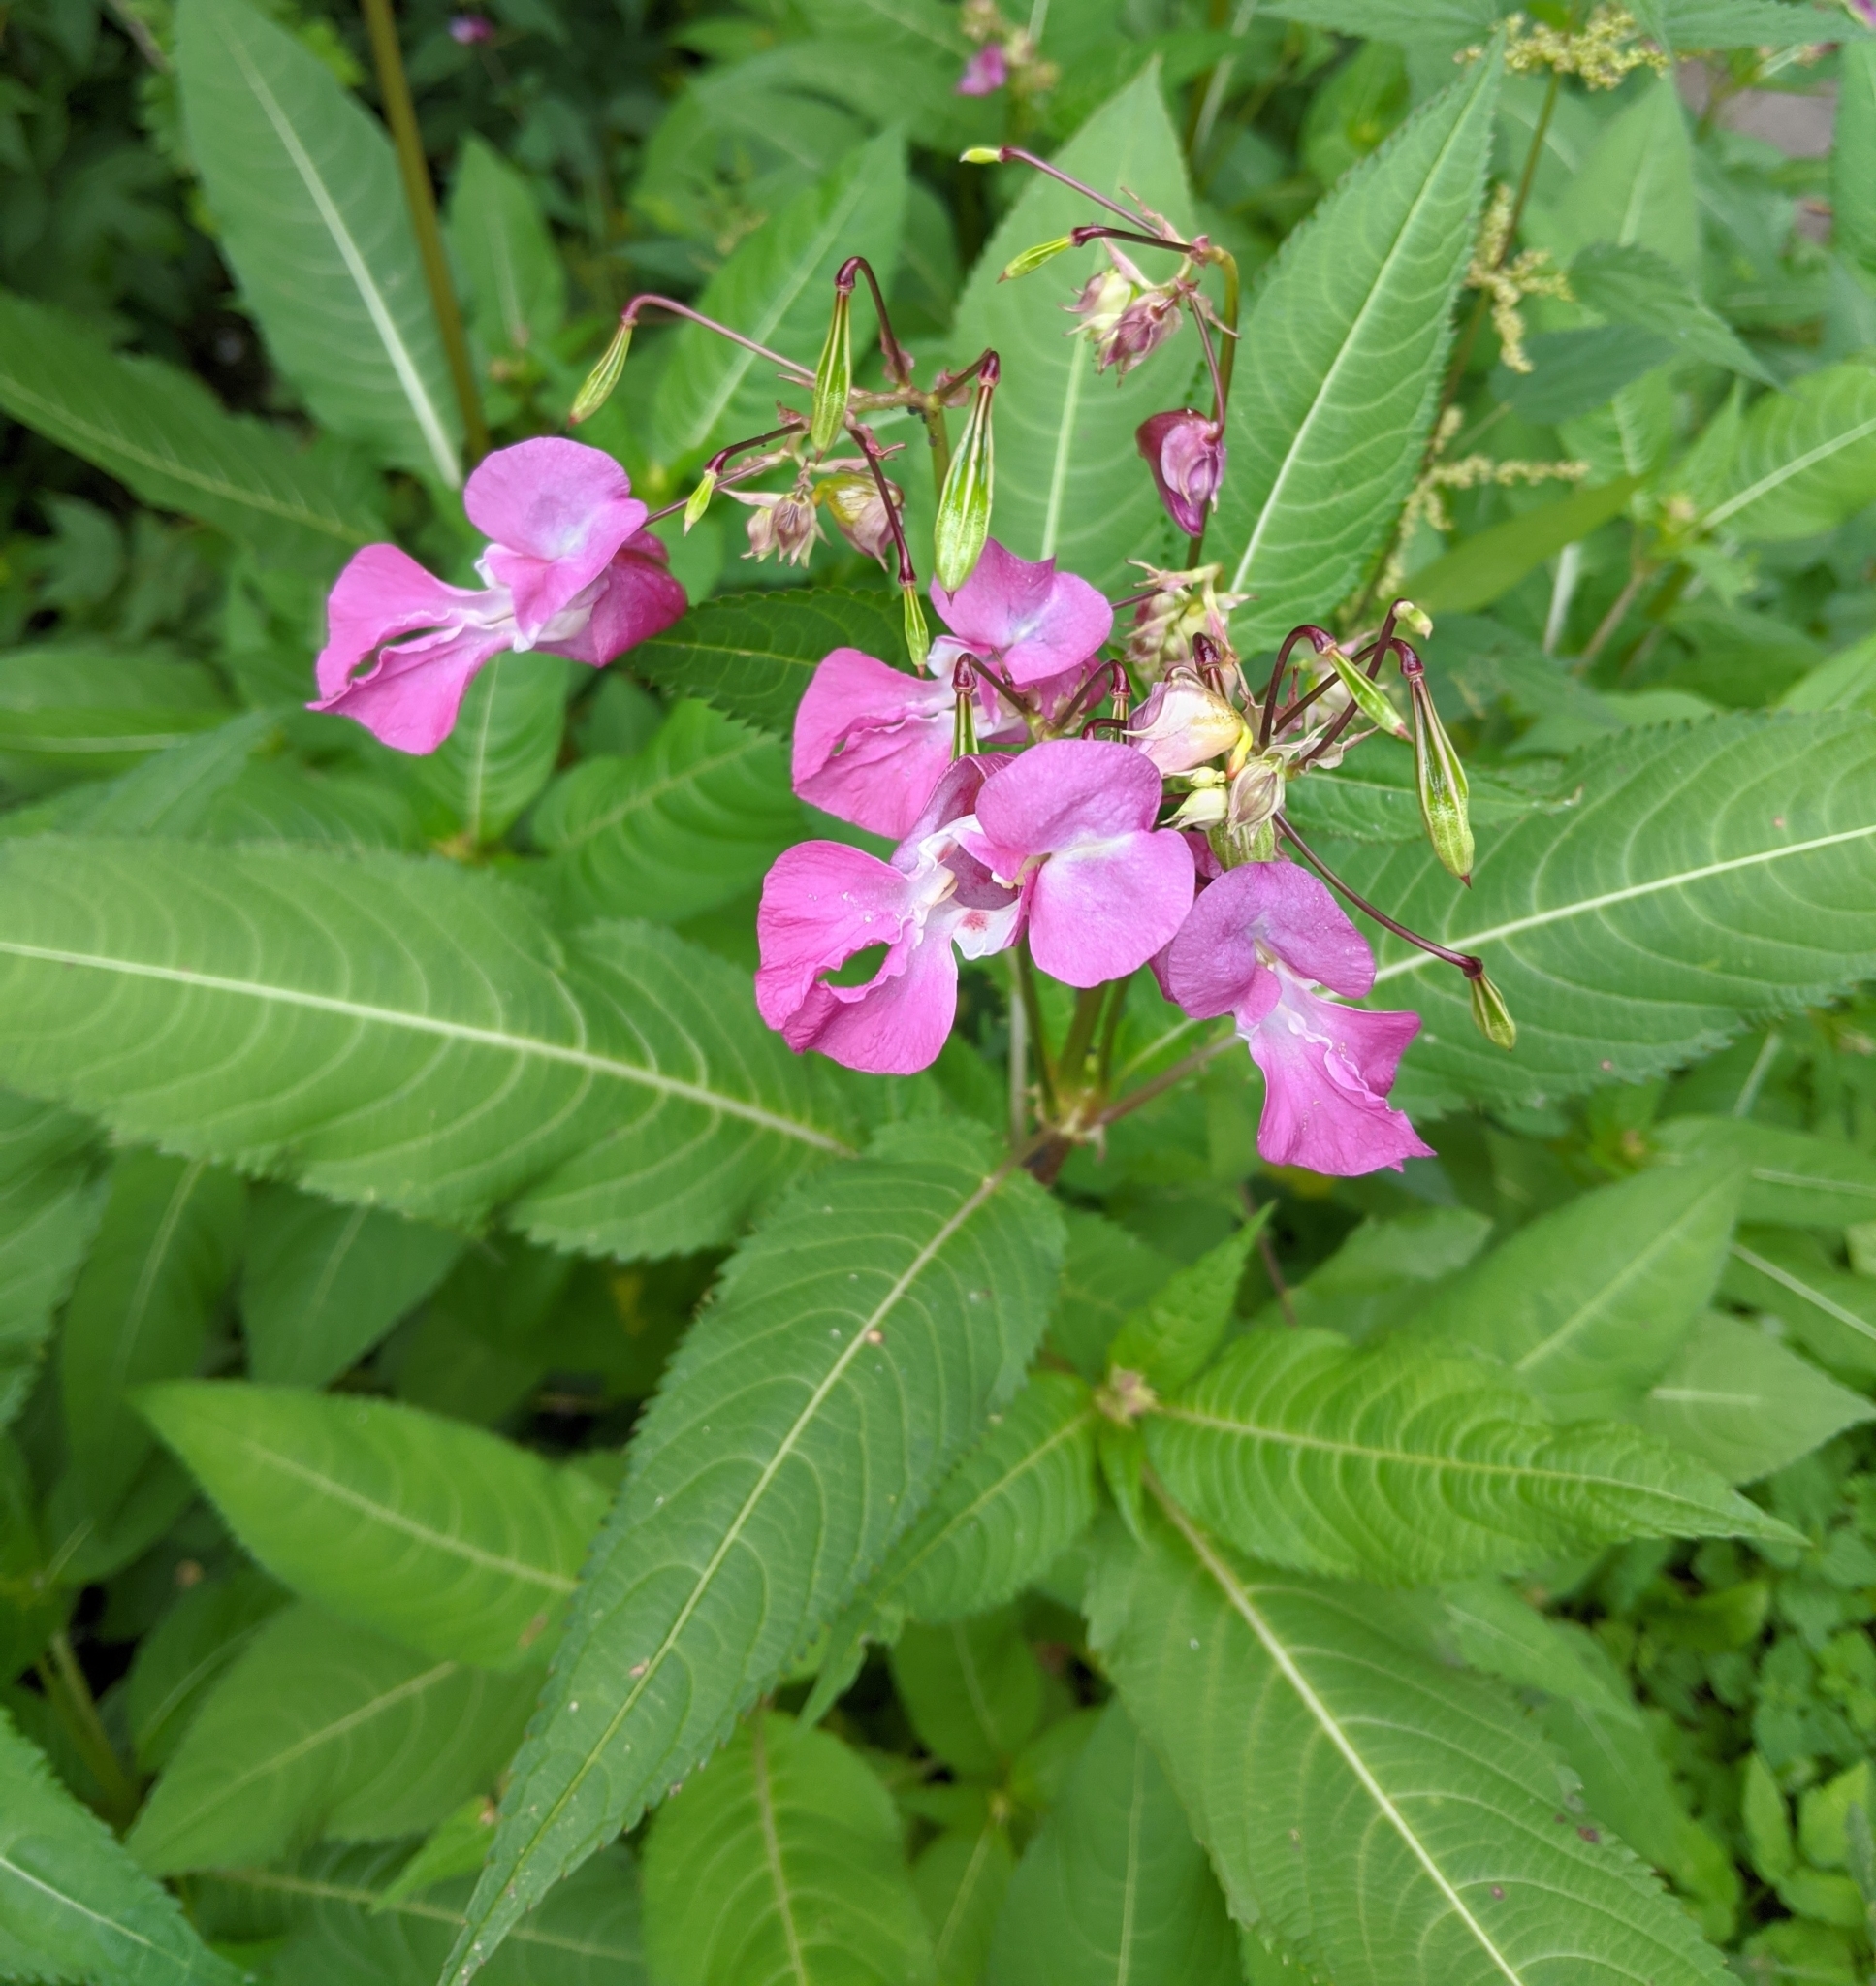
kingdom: Plantae
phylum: Tracheophyta
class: Magnoliopsida
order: Ericales
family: Balsaminaceae
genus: Impatiens
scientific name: Impatiens glandulifera
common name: Himalayan balsam
